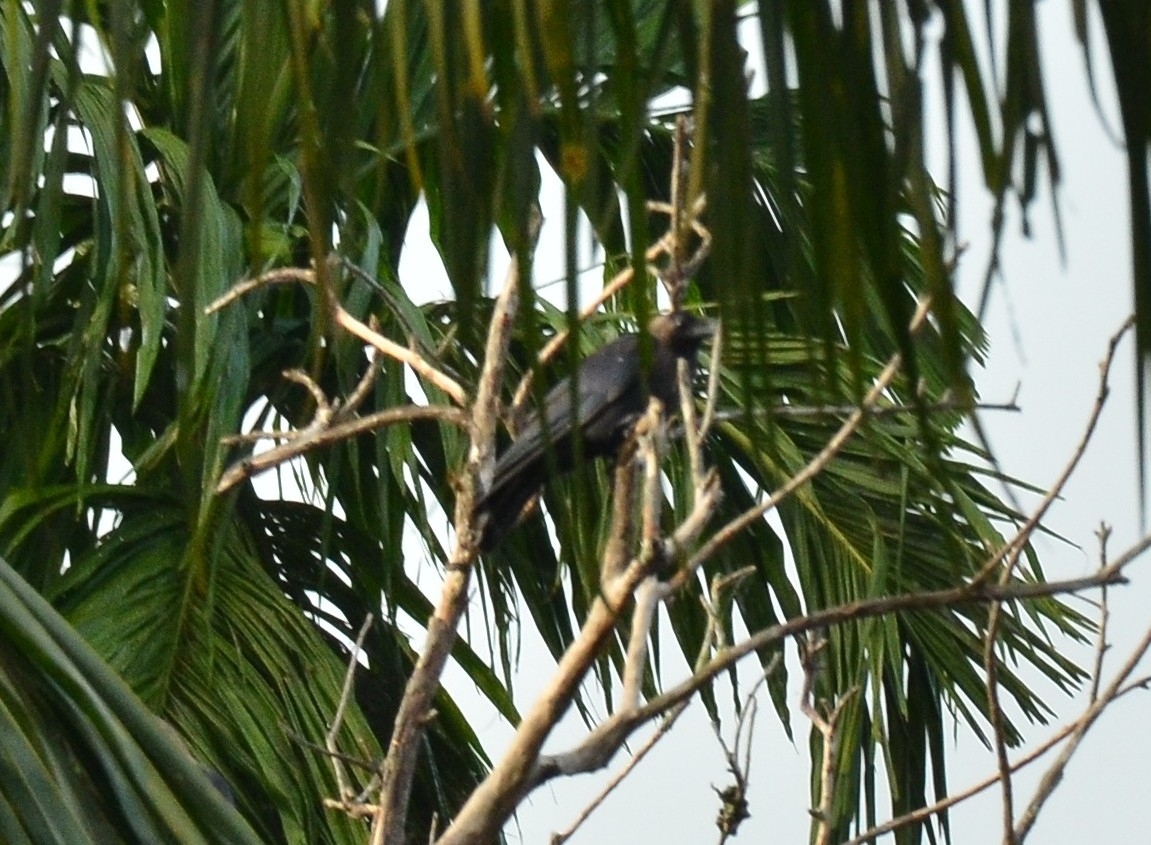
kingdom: Animalia
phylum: Chordata
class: Aves
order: Passeriformes
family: Corvidae
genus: Corvus
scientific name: Corvus splendens
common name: House crow
